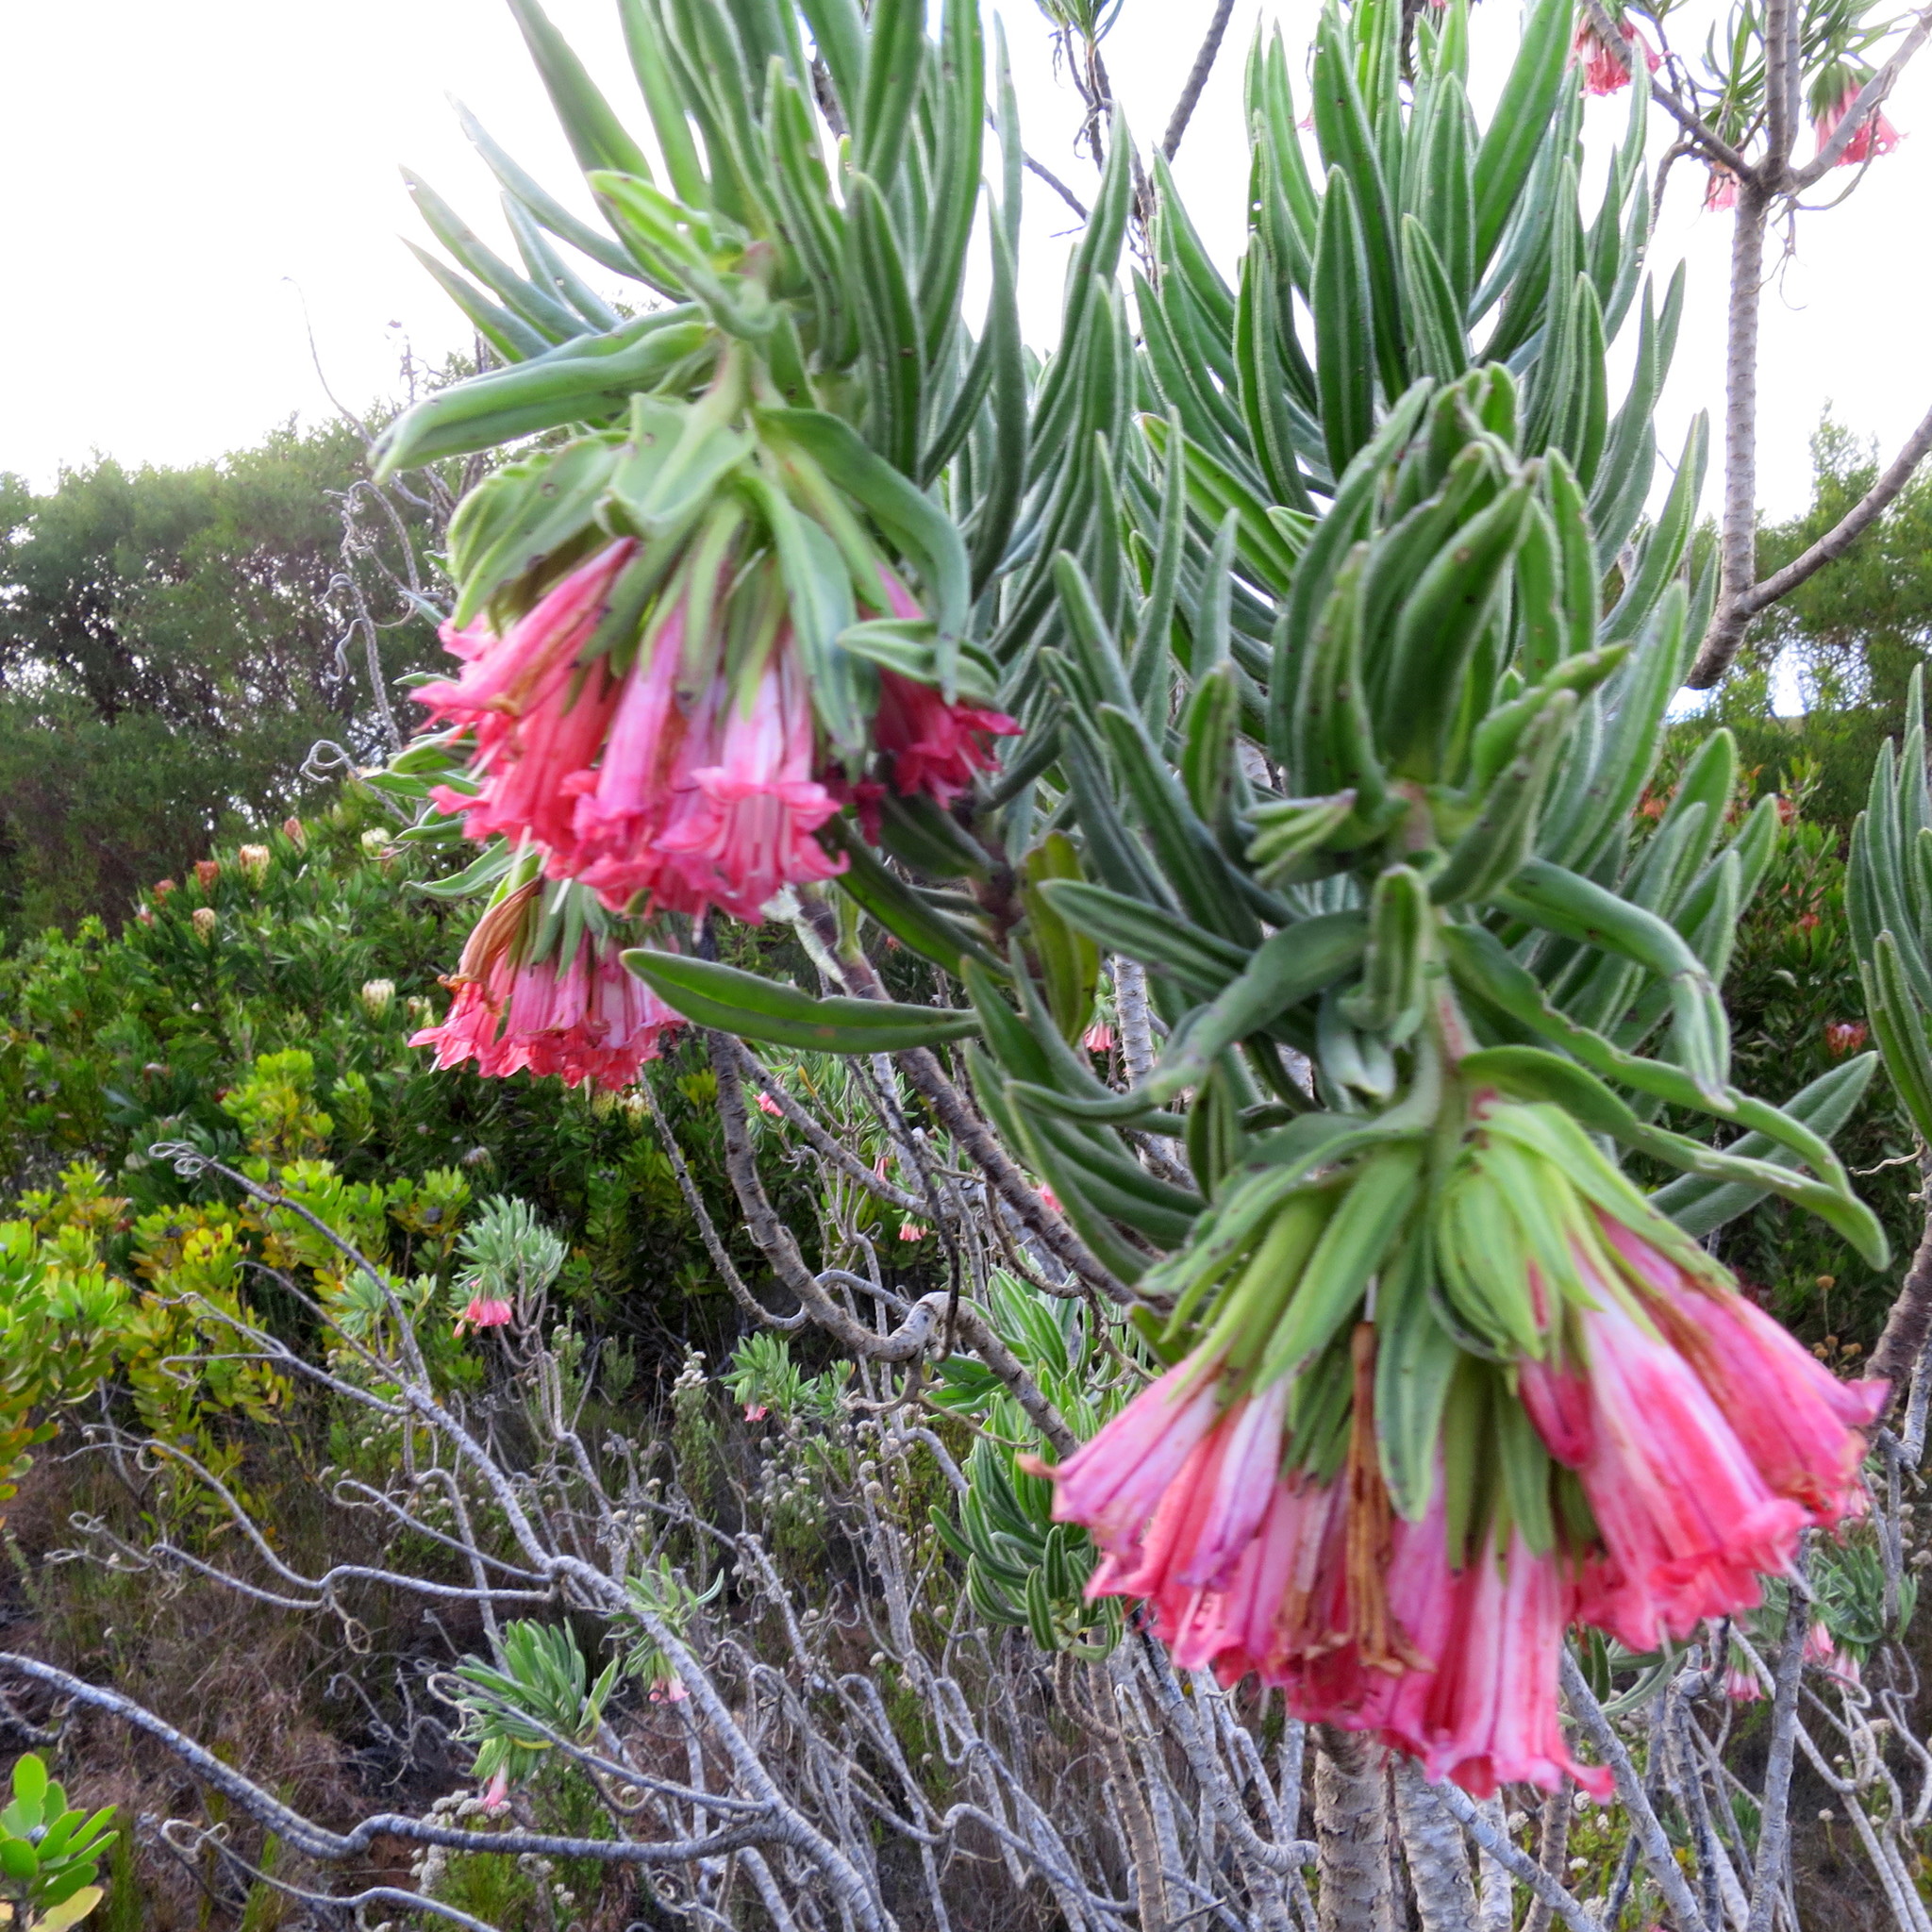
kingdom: Plantae
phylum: Tracheophyta
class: Magnoliopsida
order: Boraginales
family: Boraginaceae
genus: Lobostemon
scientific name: Lobostemon belliformis
